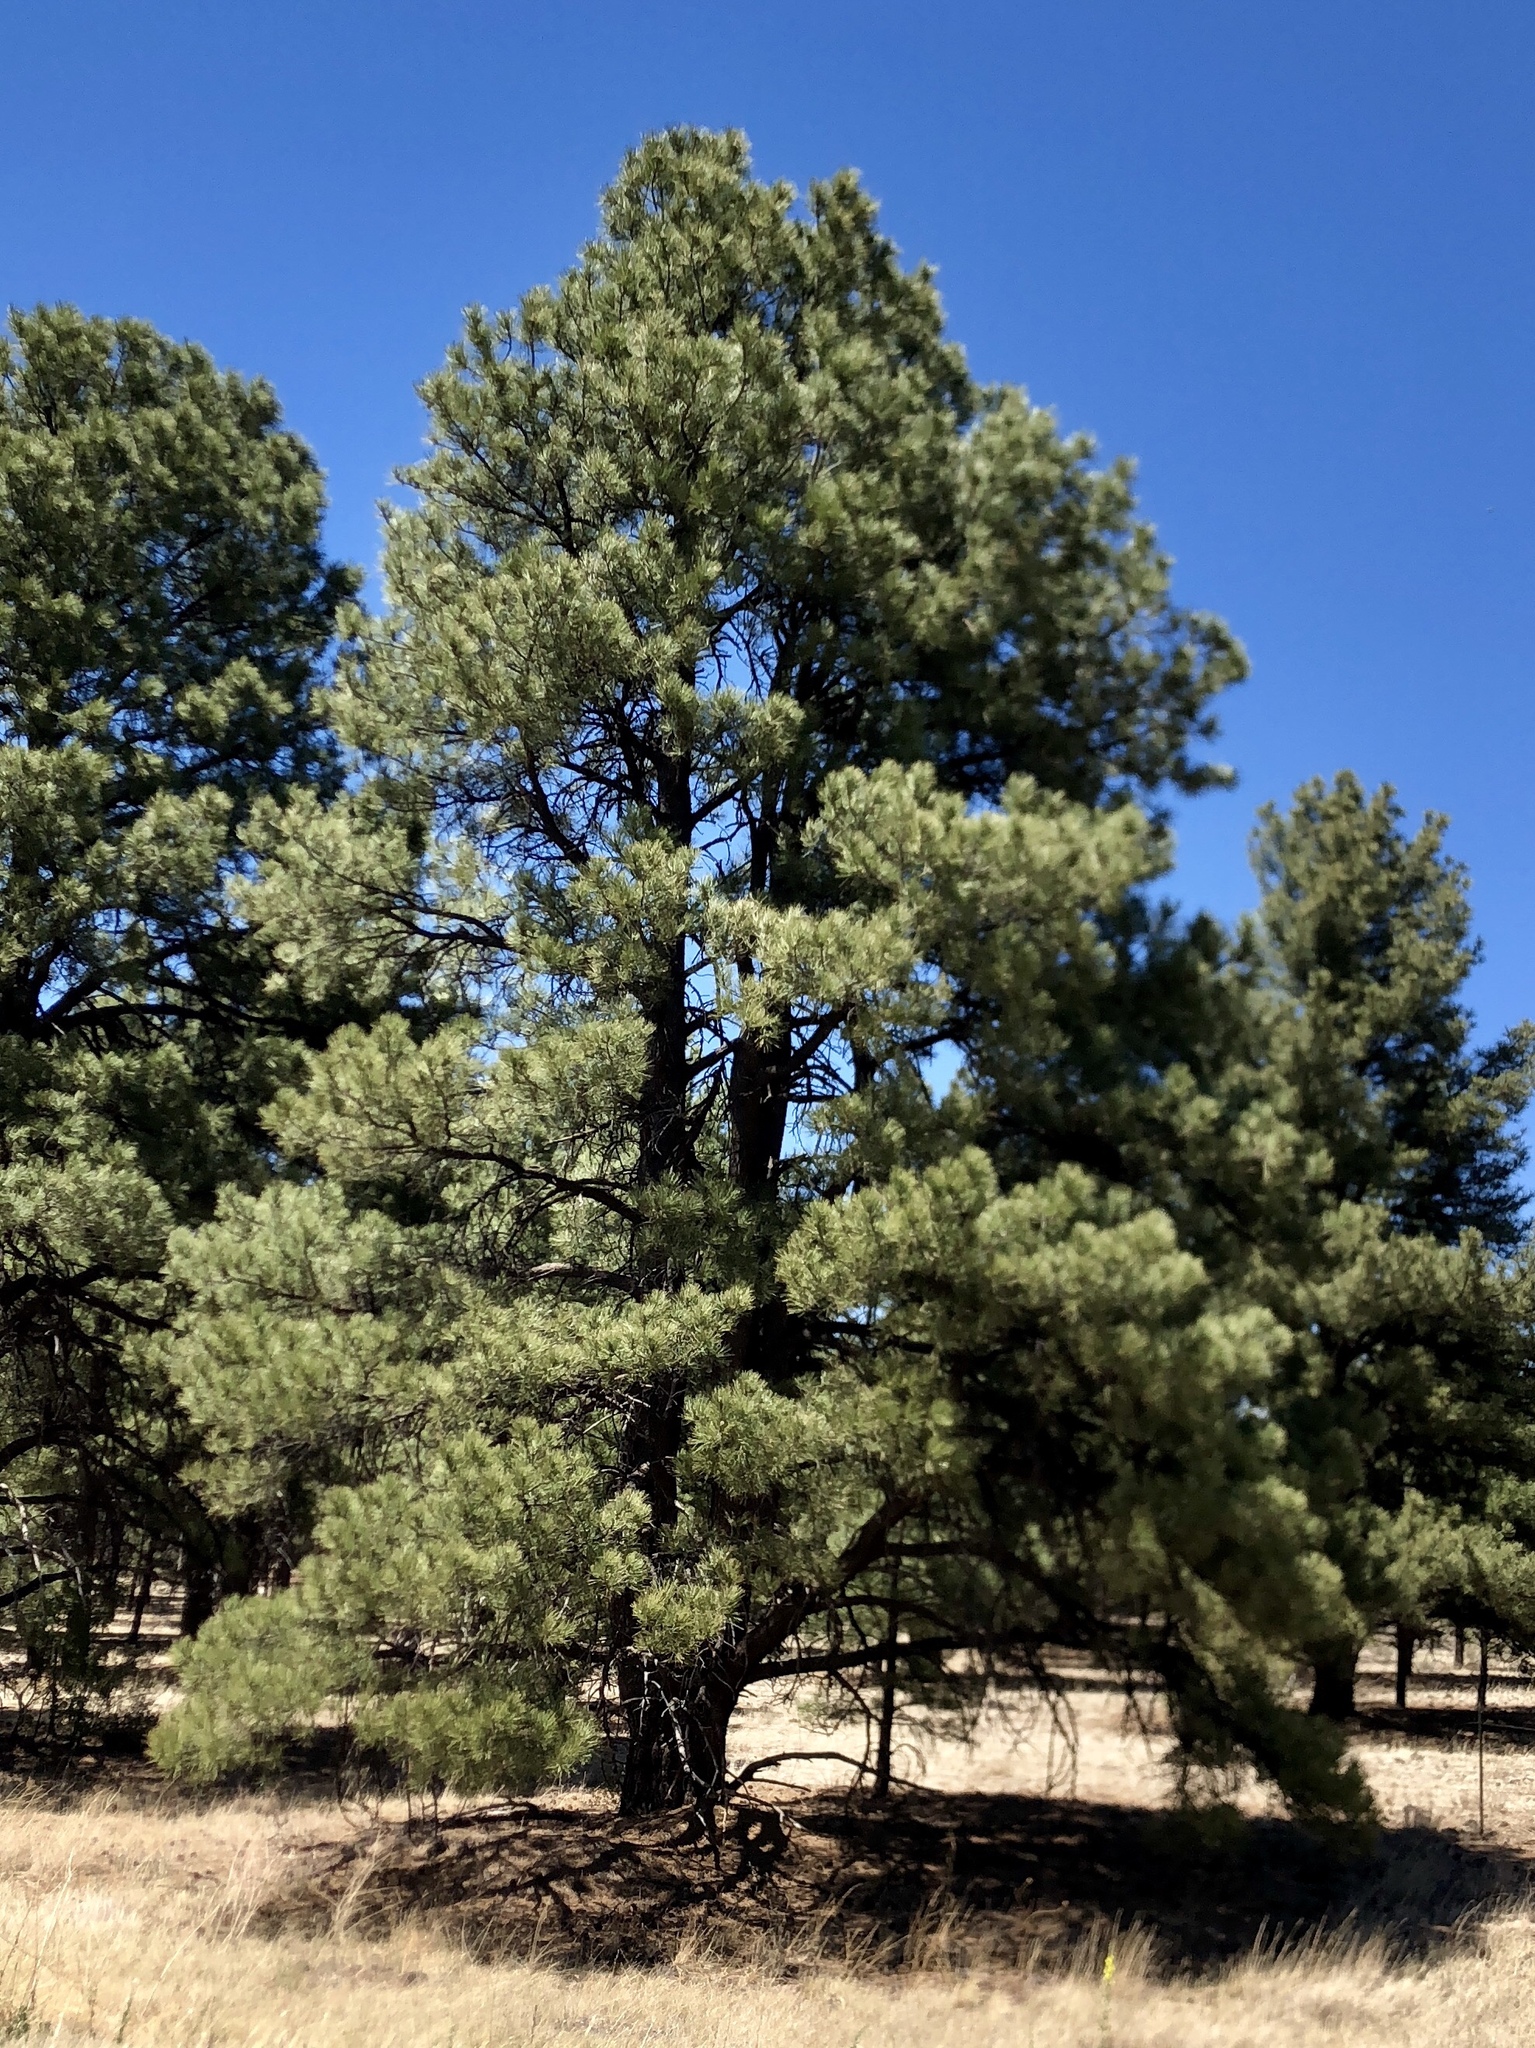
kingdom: Plantae
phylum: Tracheophyta
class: Pinopsida
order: Pinales
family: Pinaceae
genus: Pinus
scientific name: Pinus ponderosa
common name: Western yellow-pine
